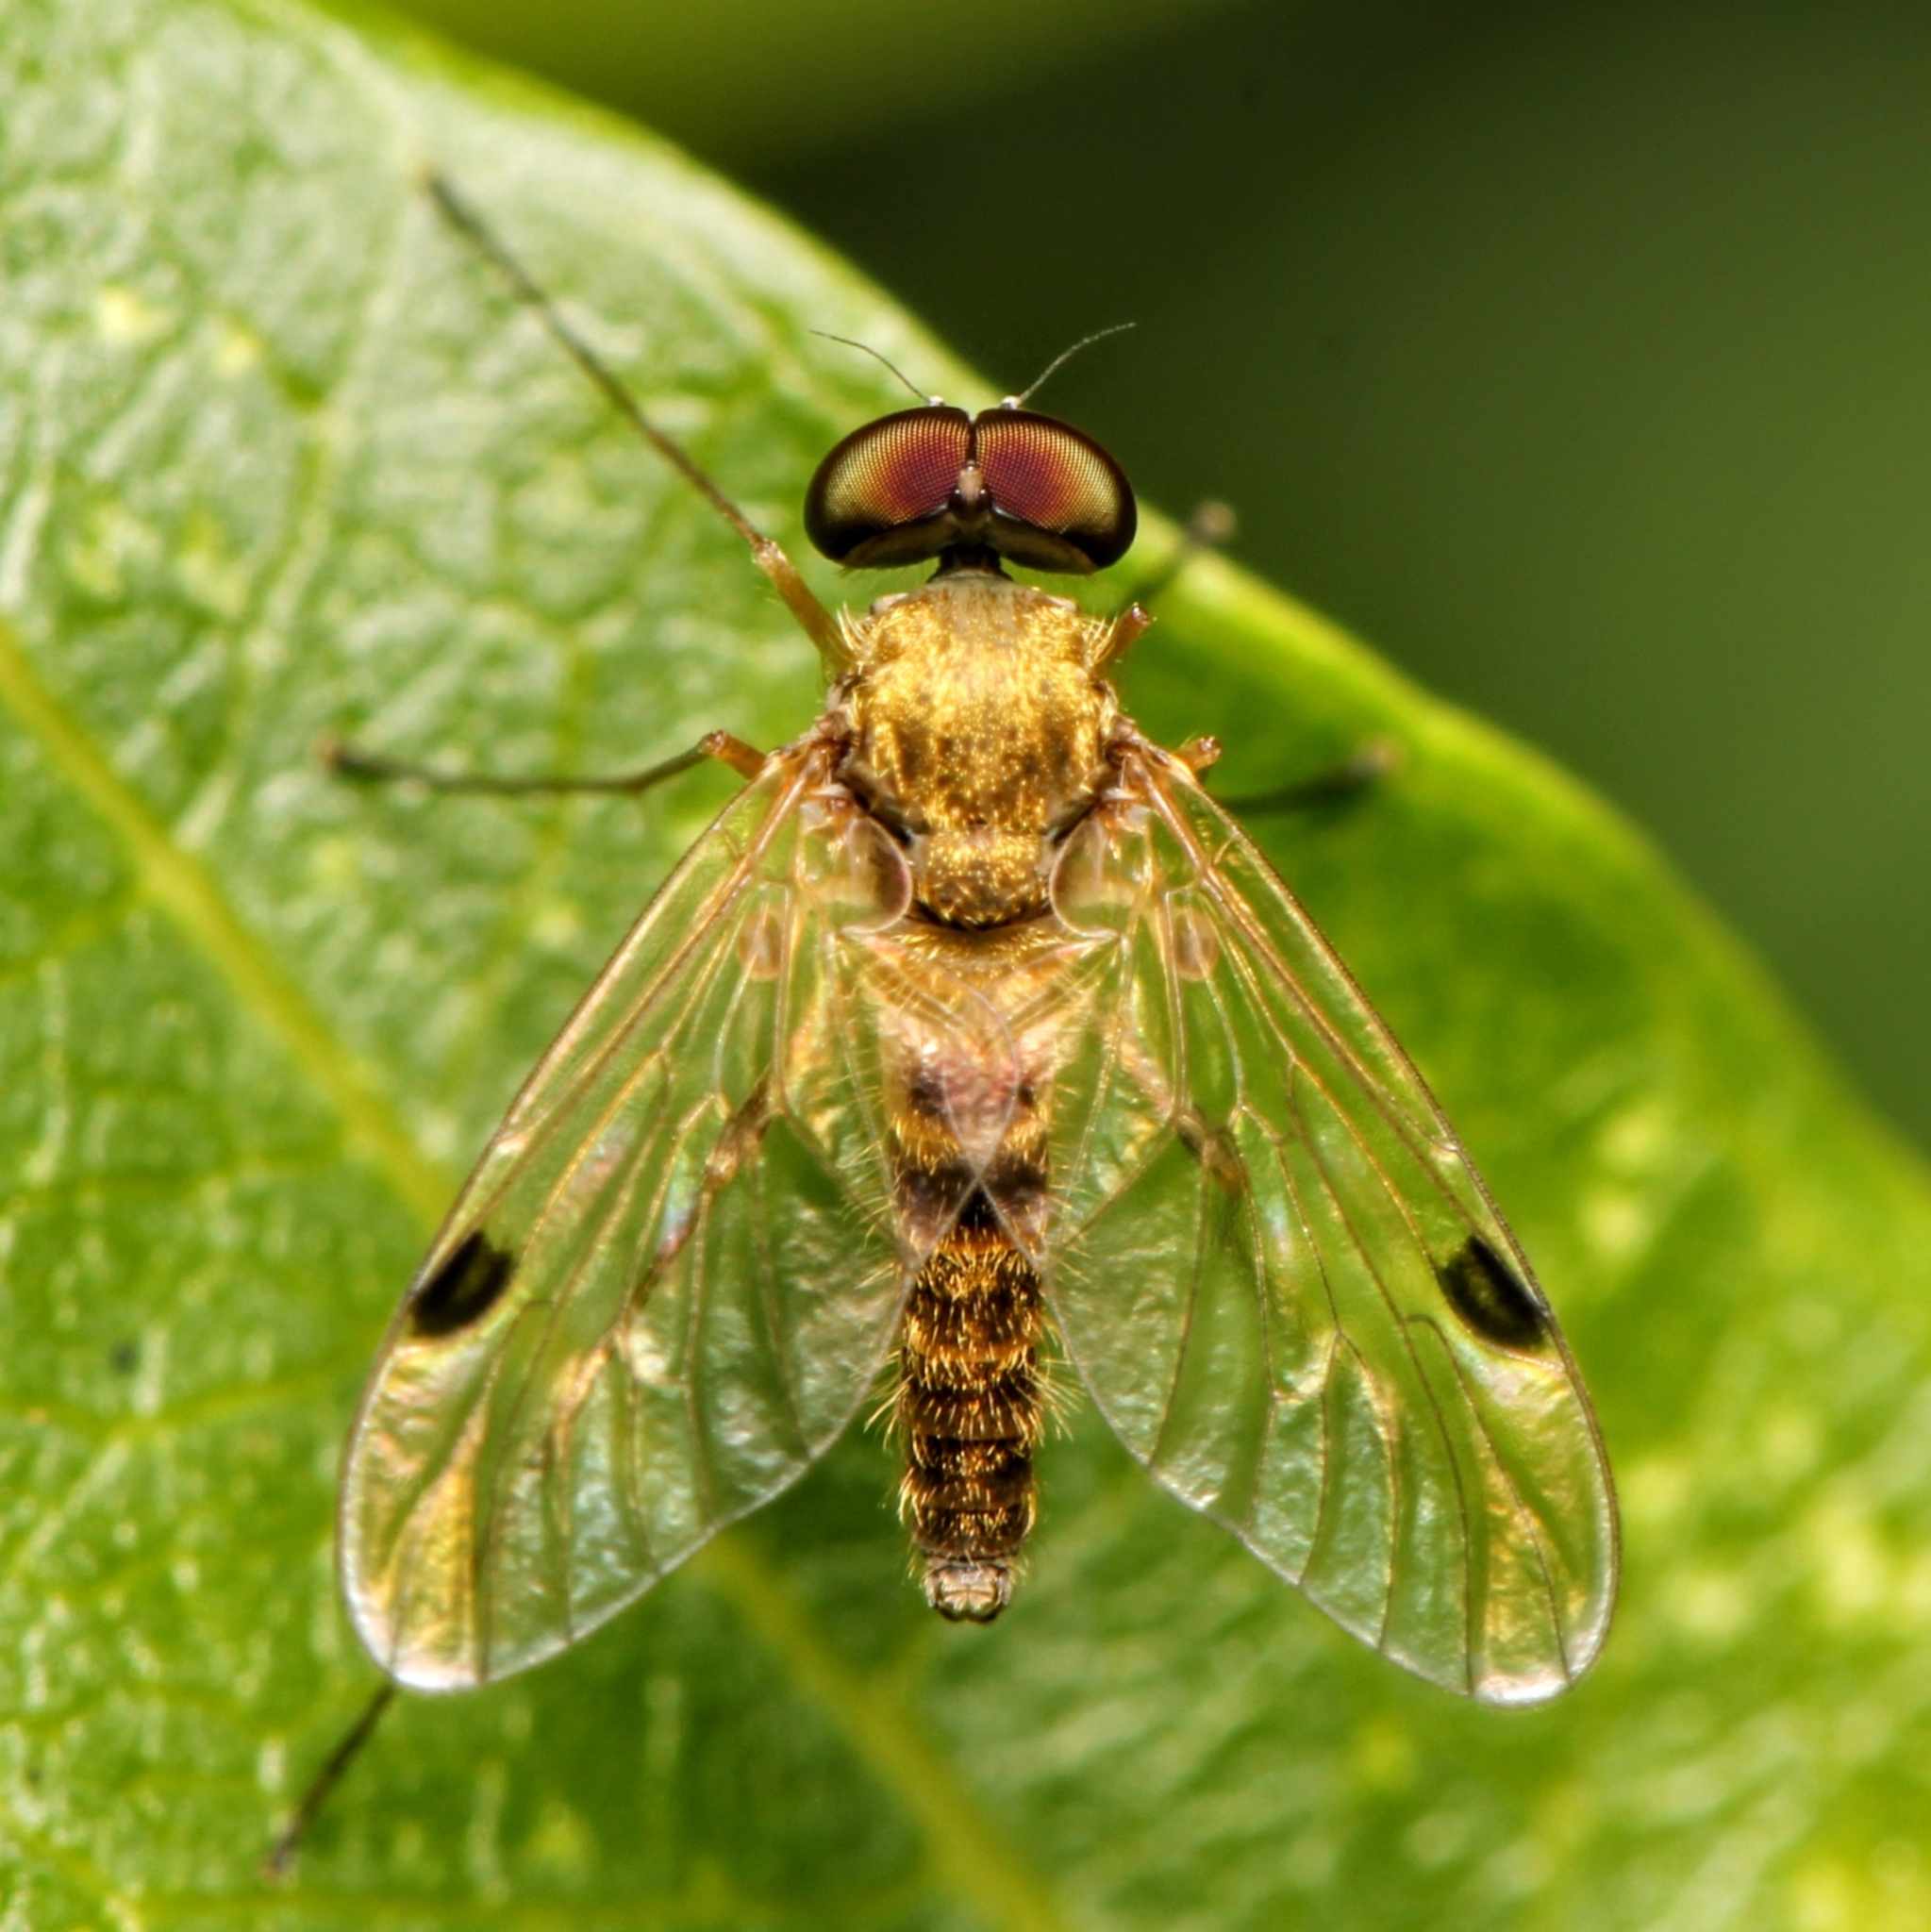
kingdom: Animalia
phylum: Arthropoda
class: Insecta
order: Diptera
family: Rhagionidae
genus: Chrysopilus
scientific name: Chrysopilus modestus
